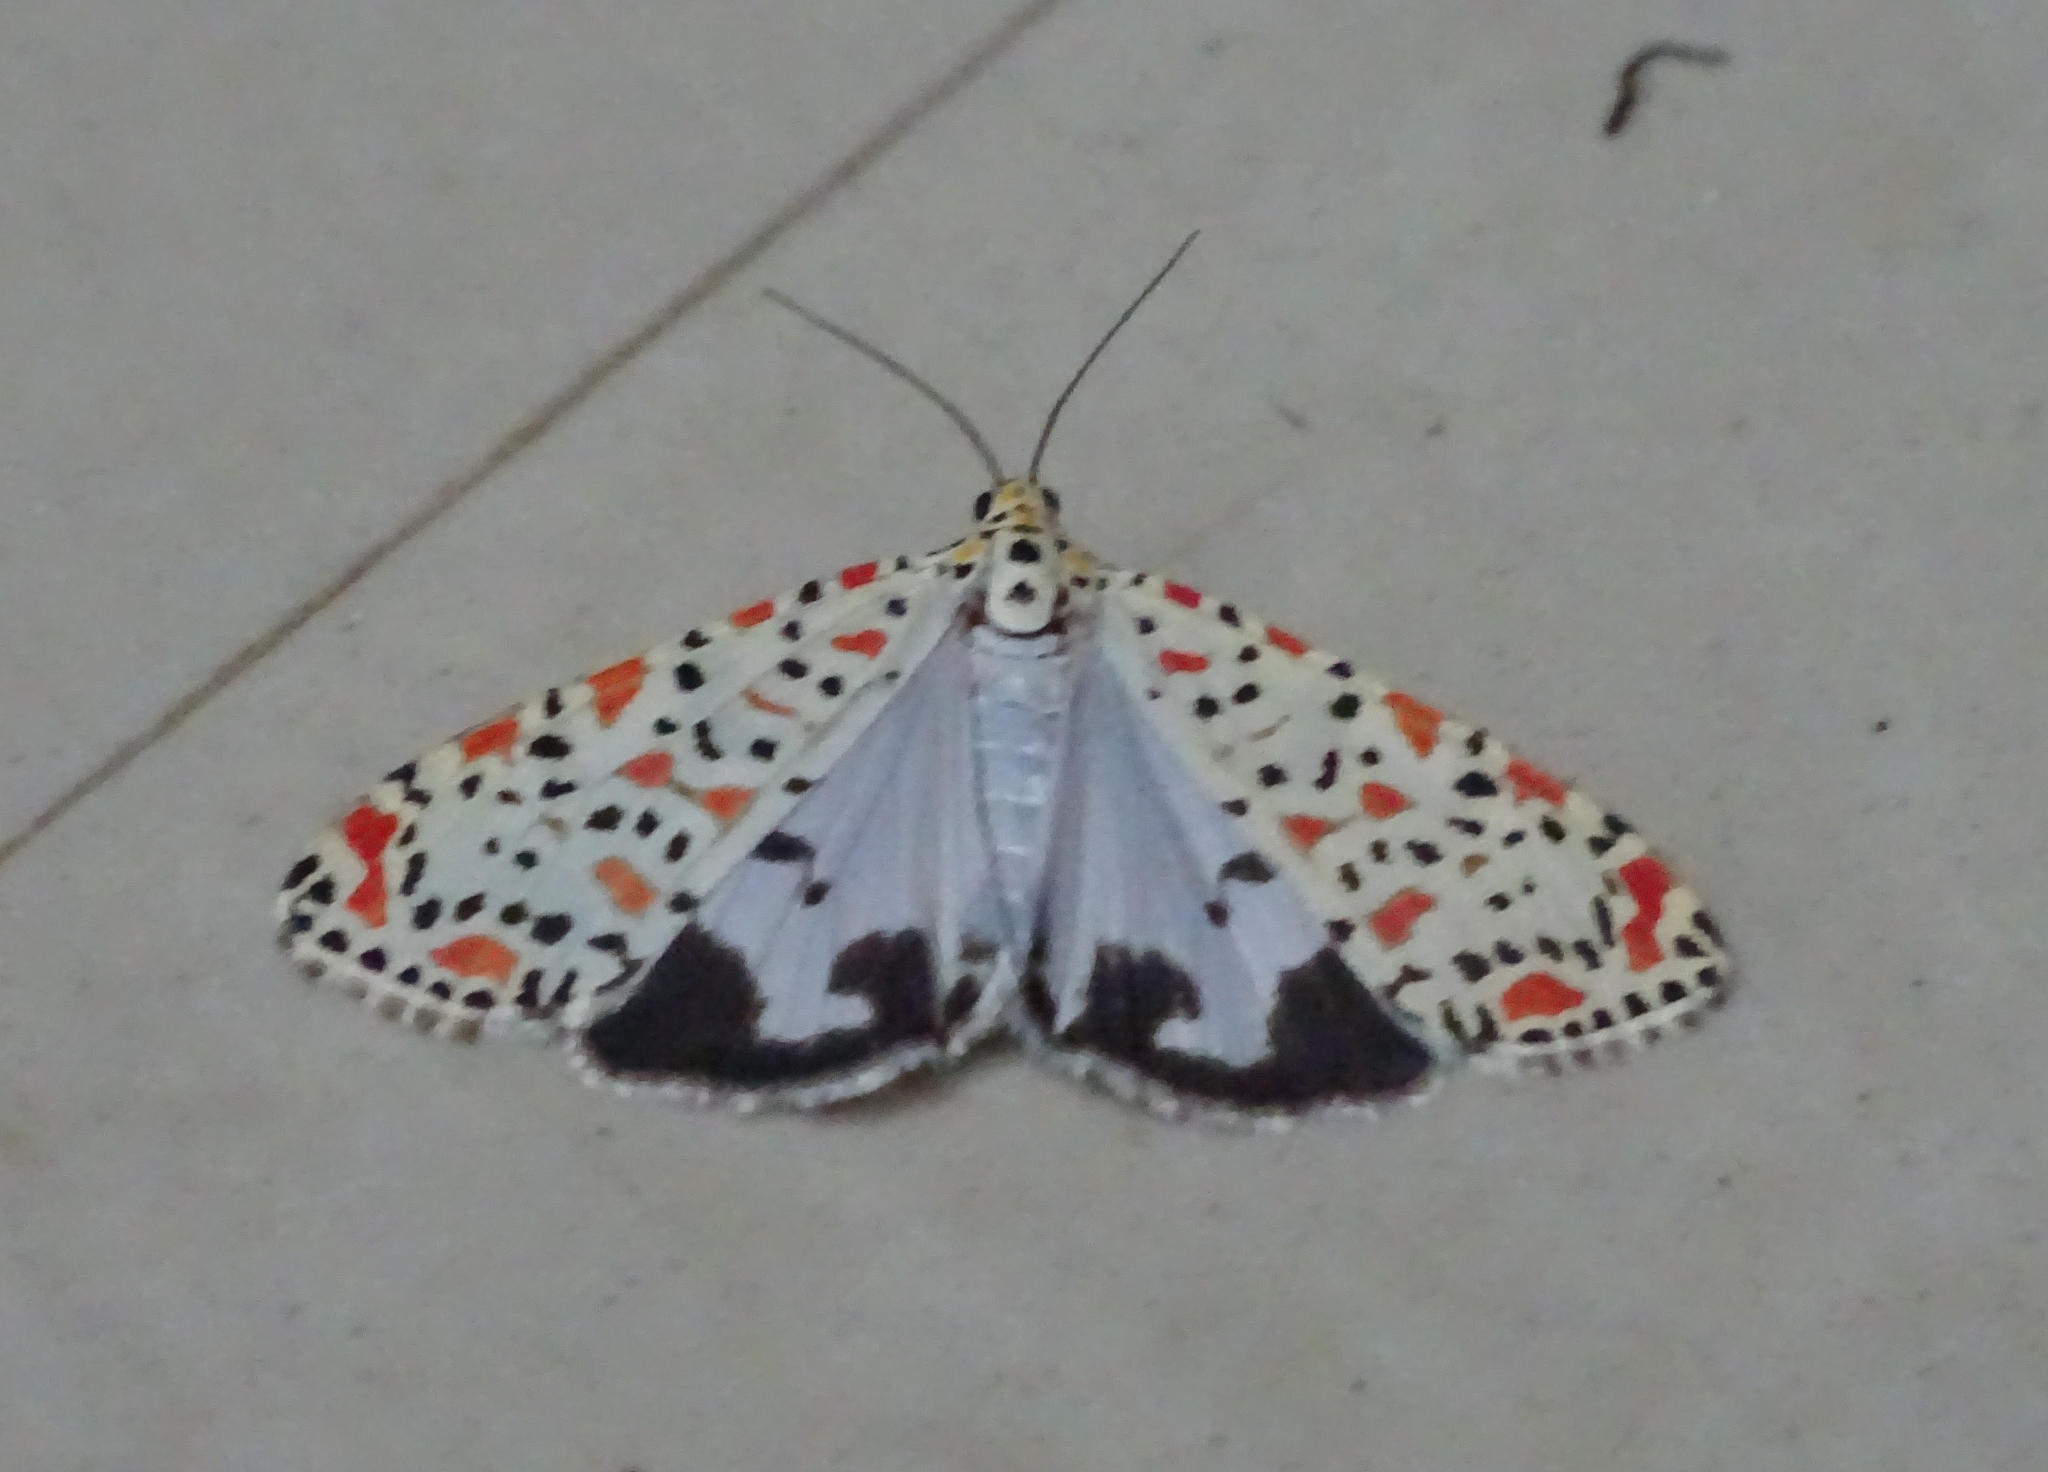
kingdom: Animalia
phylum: Arthropoda
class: Insecta
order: Lepidoptera
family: Erebidae
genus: Utetheisa
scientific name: Utetheisa lotrix
